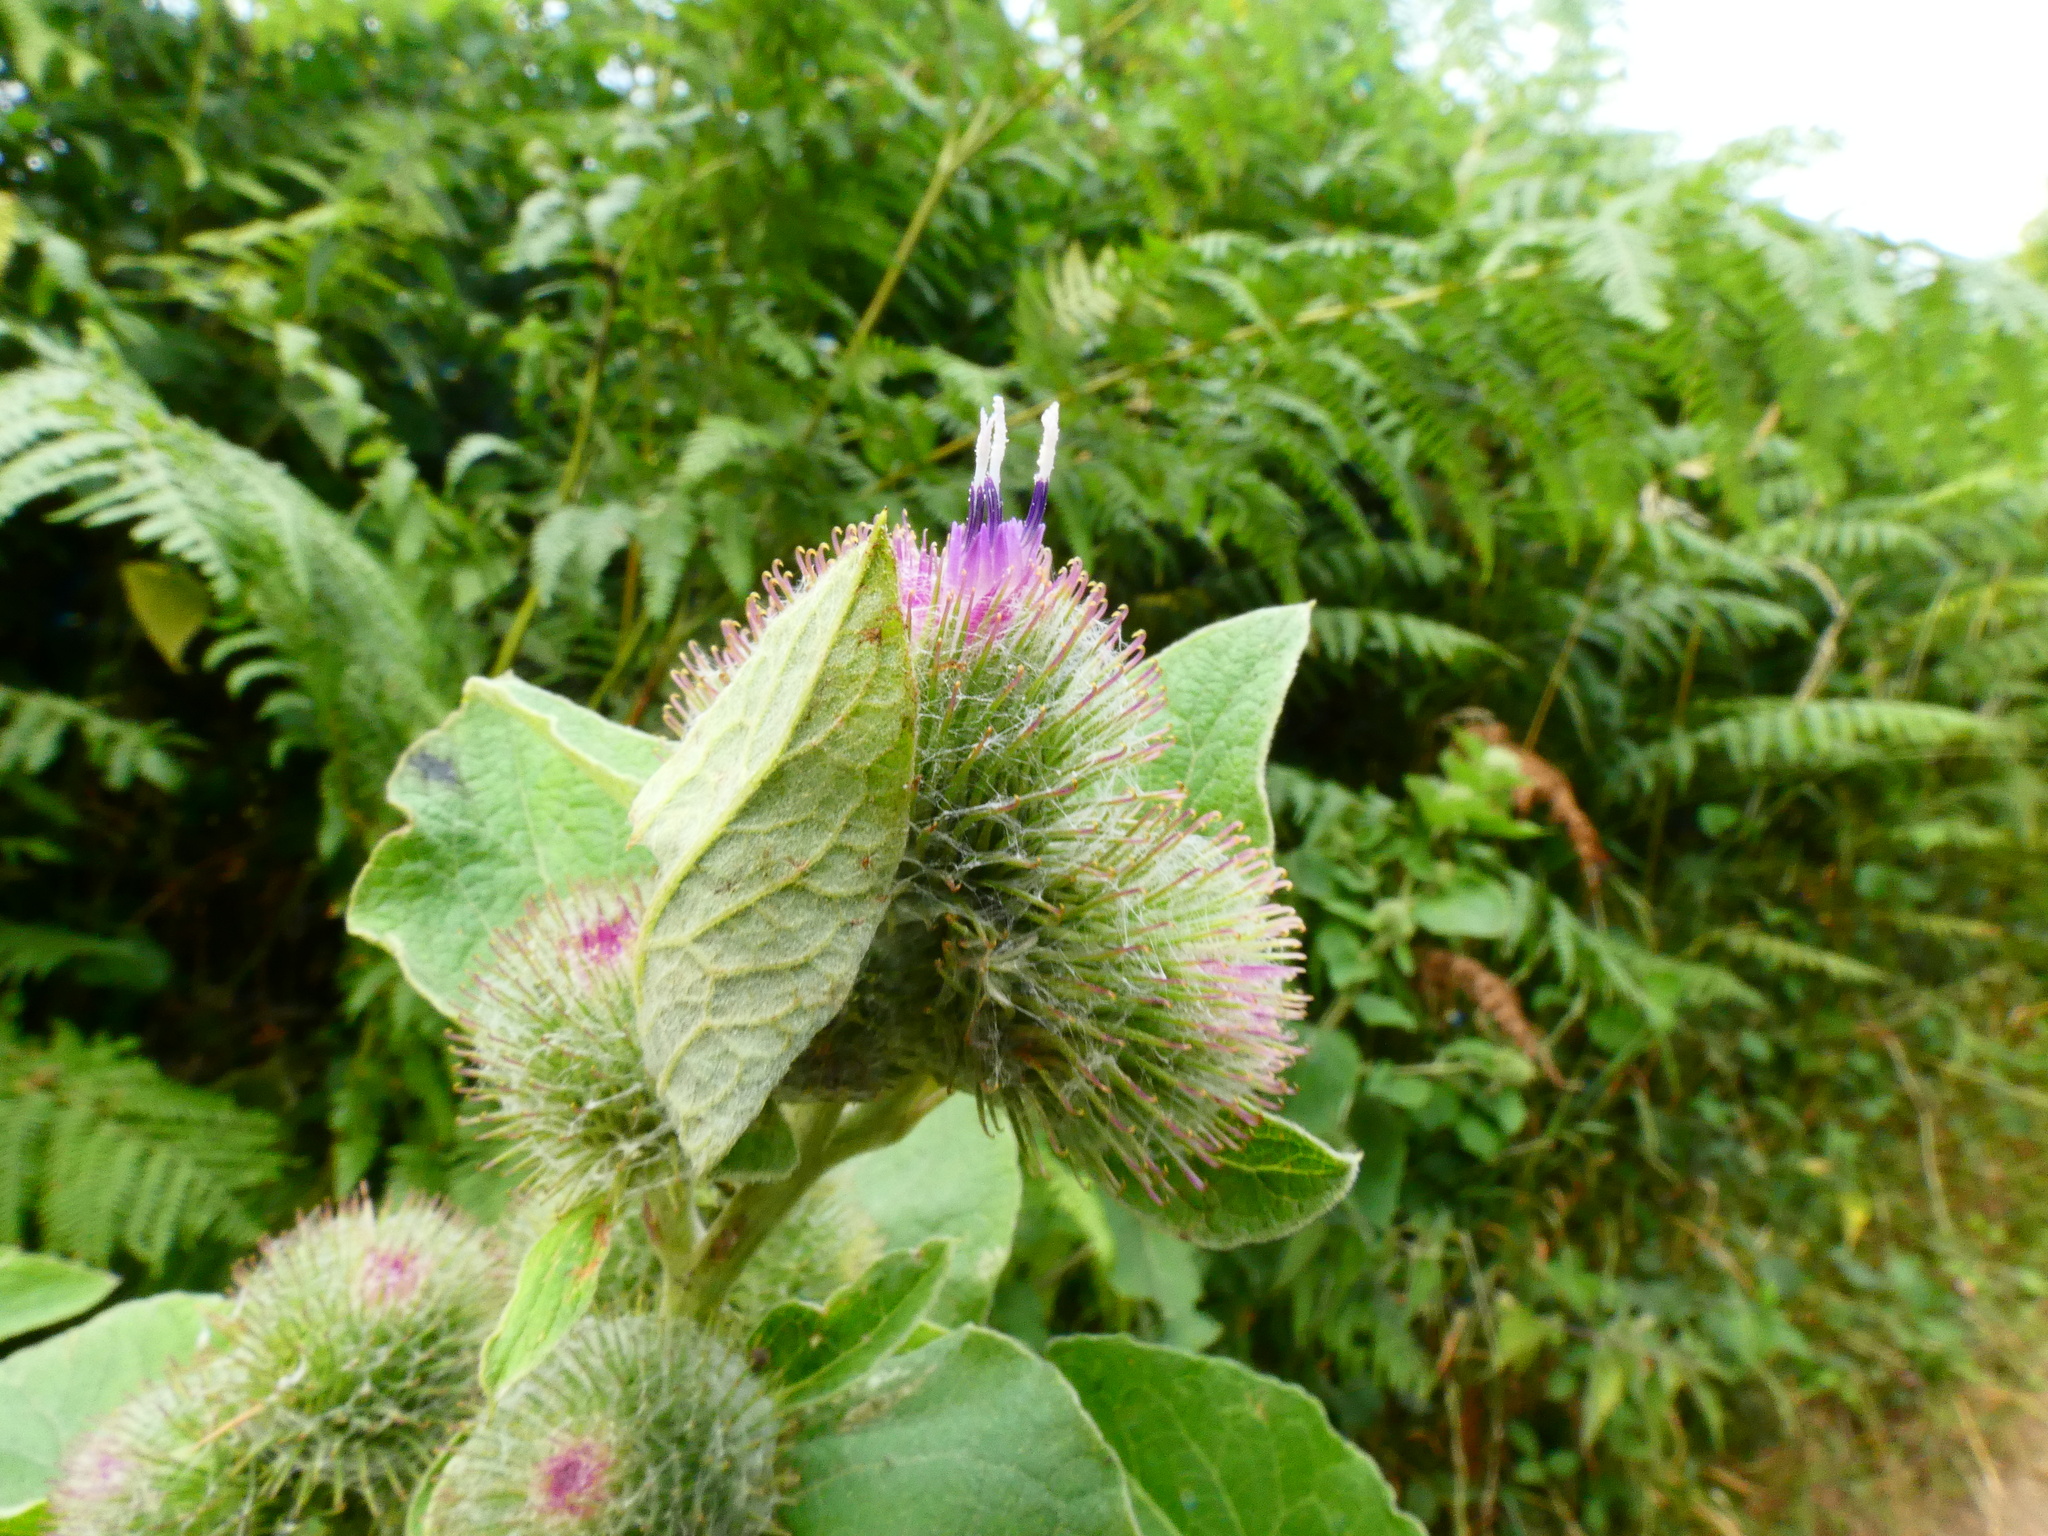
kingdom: Plantae
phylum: Tracheophyta
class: Magnoliopsida
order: Asterales
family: Asteraceae
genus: Arctium
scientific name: Arctium minus
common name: Lesser burdock
